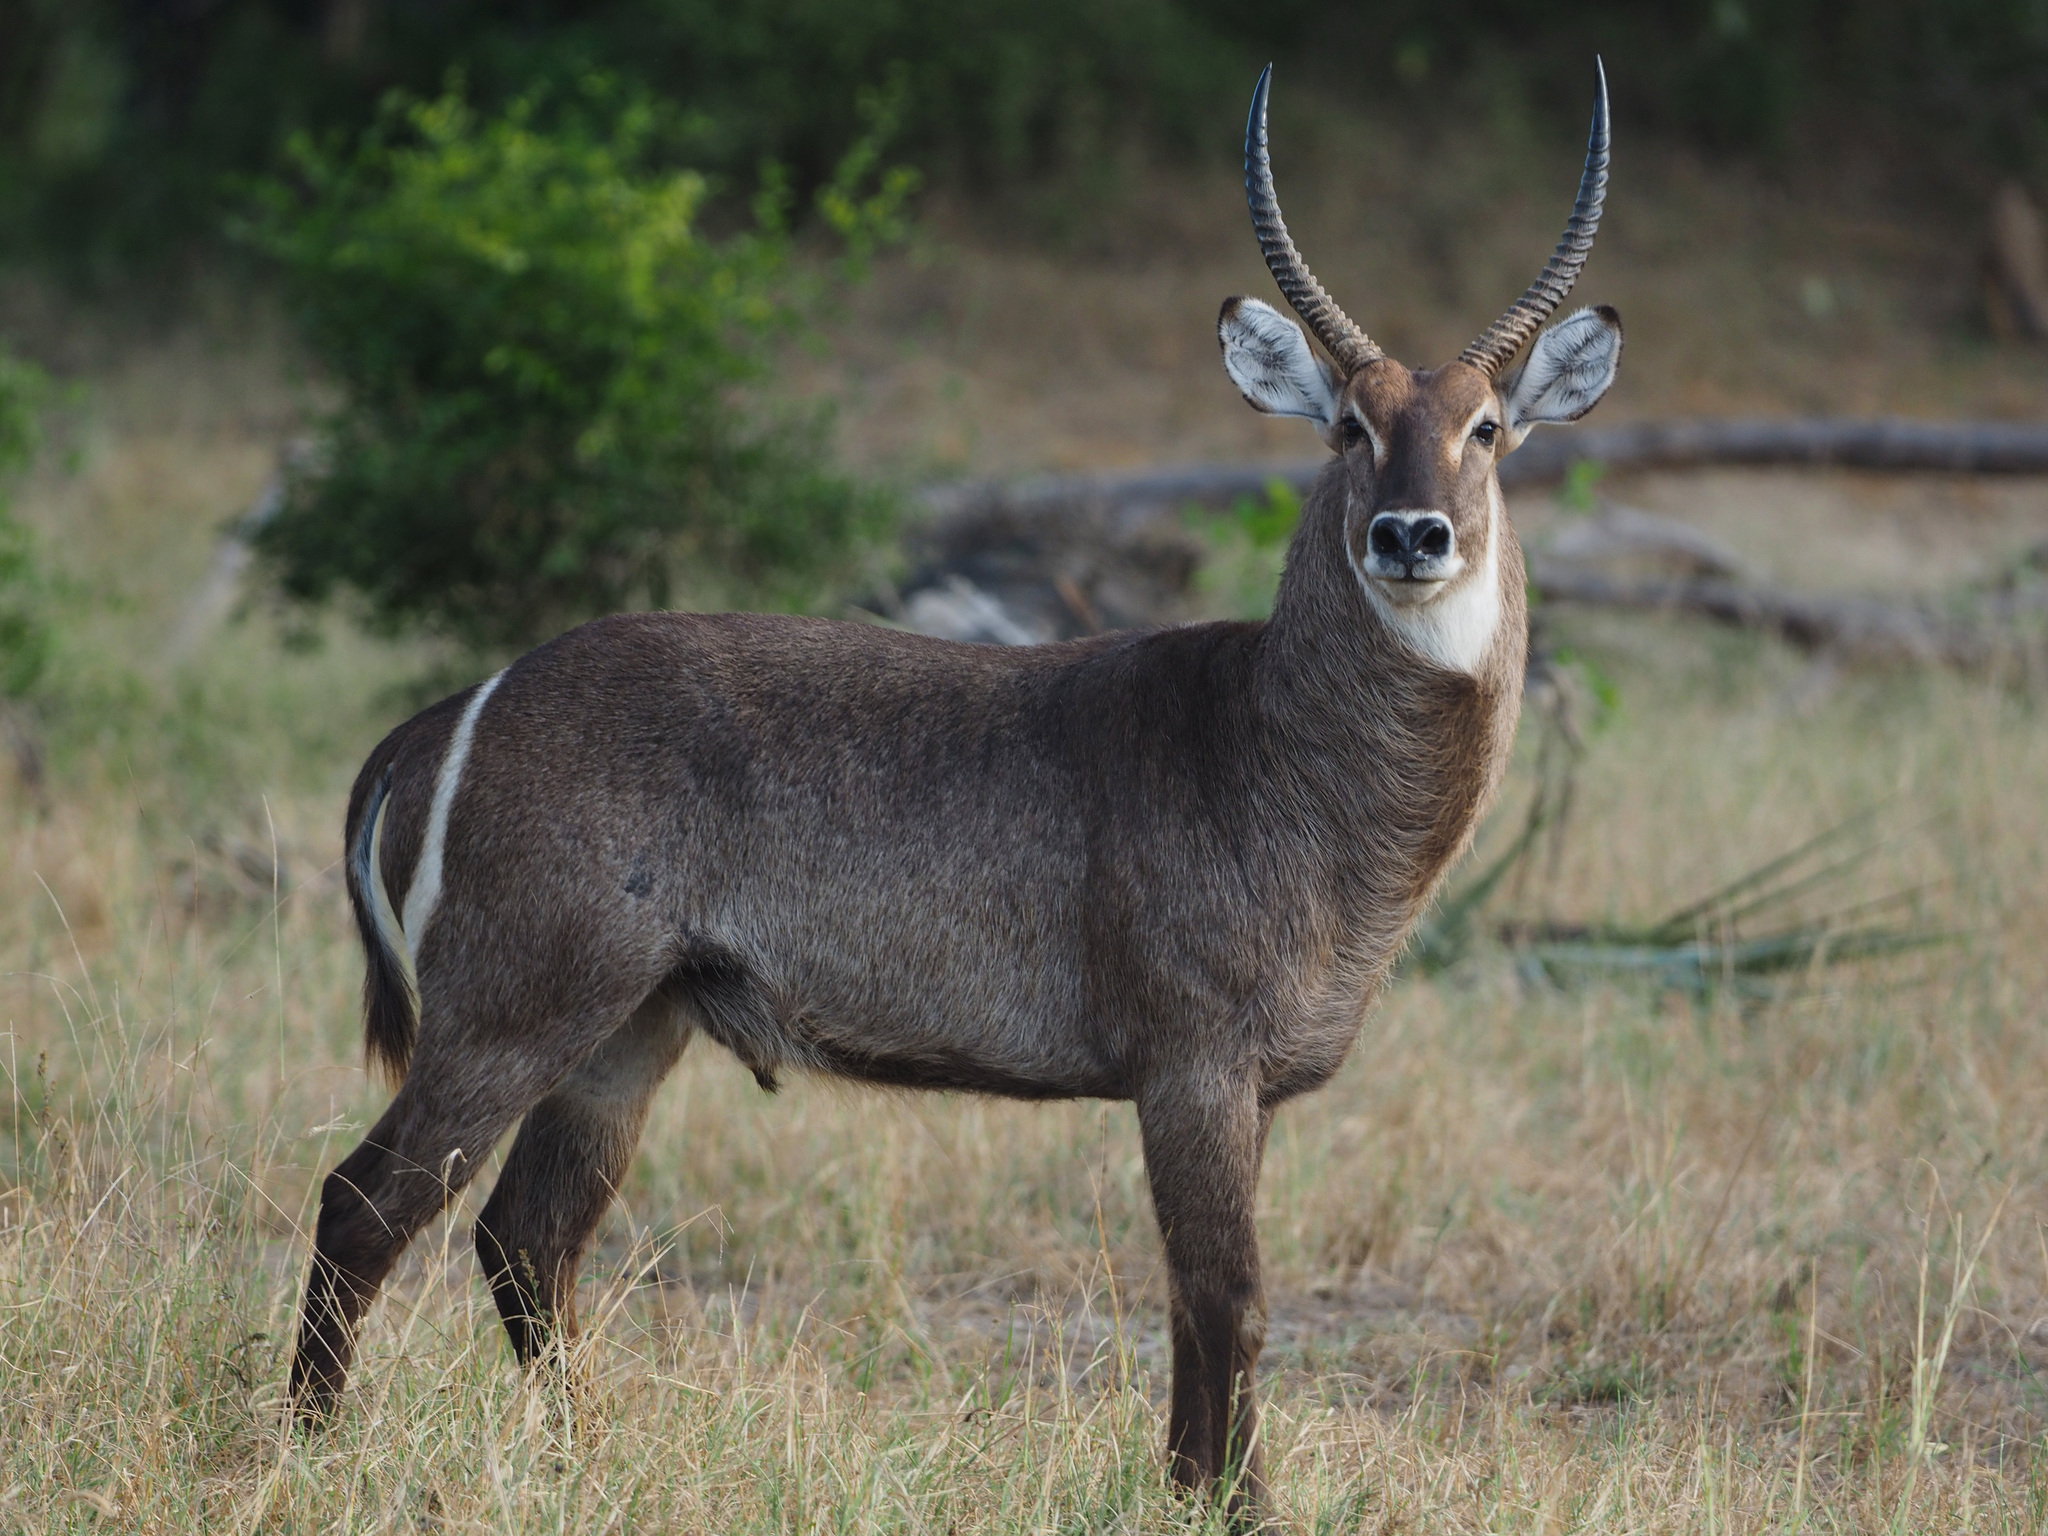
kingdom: Animalia
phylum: Chordata
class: Mammalia
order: Artiodactyla
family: Bovidae
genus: Kobus
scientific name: Kobus ellipsiprymnus
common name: Waterbuck
